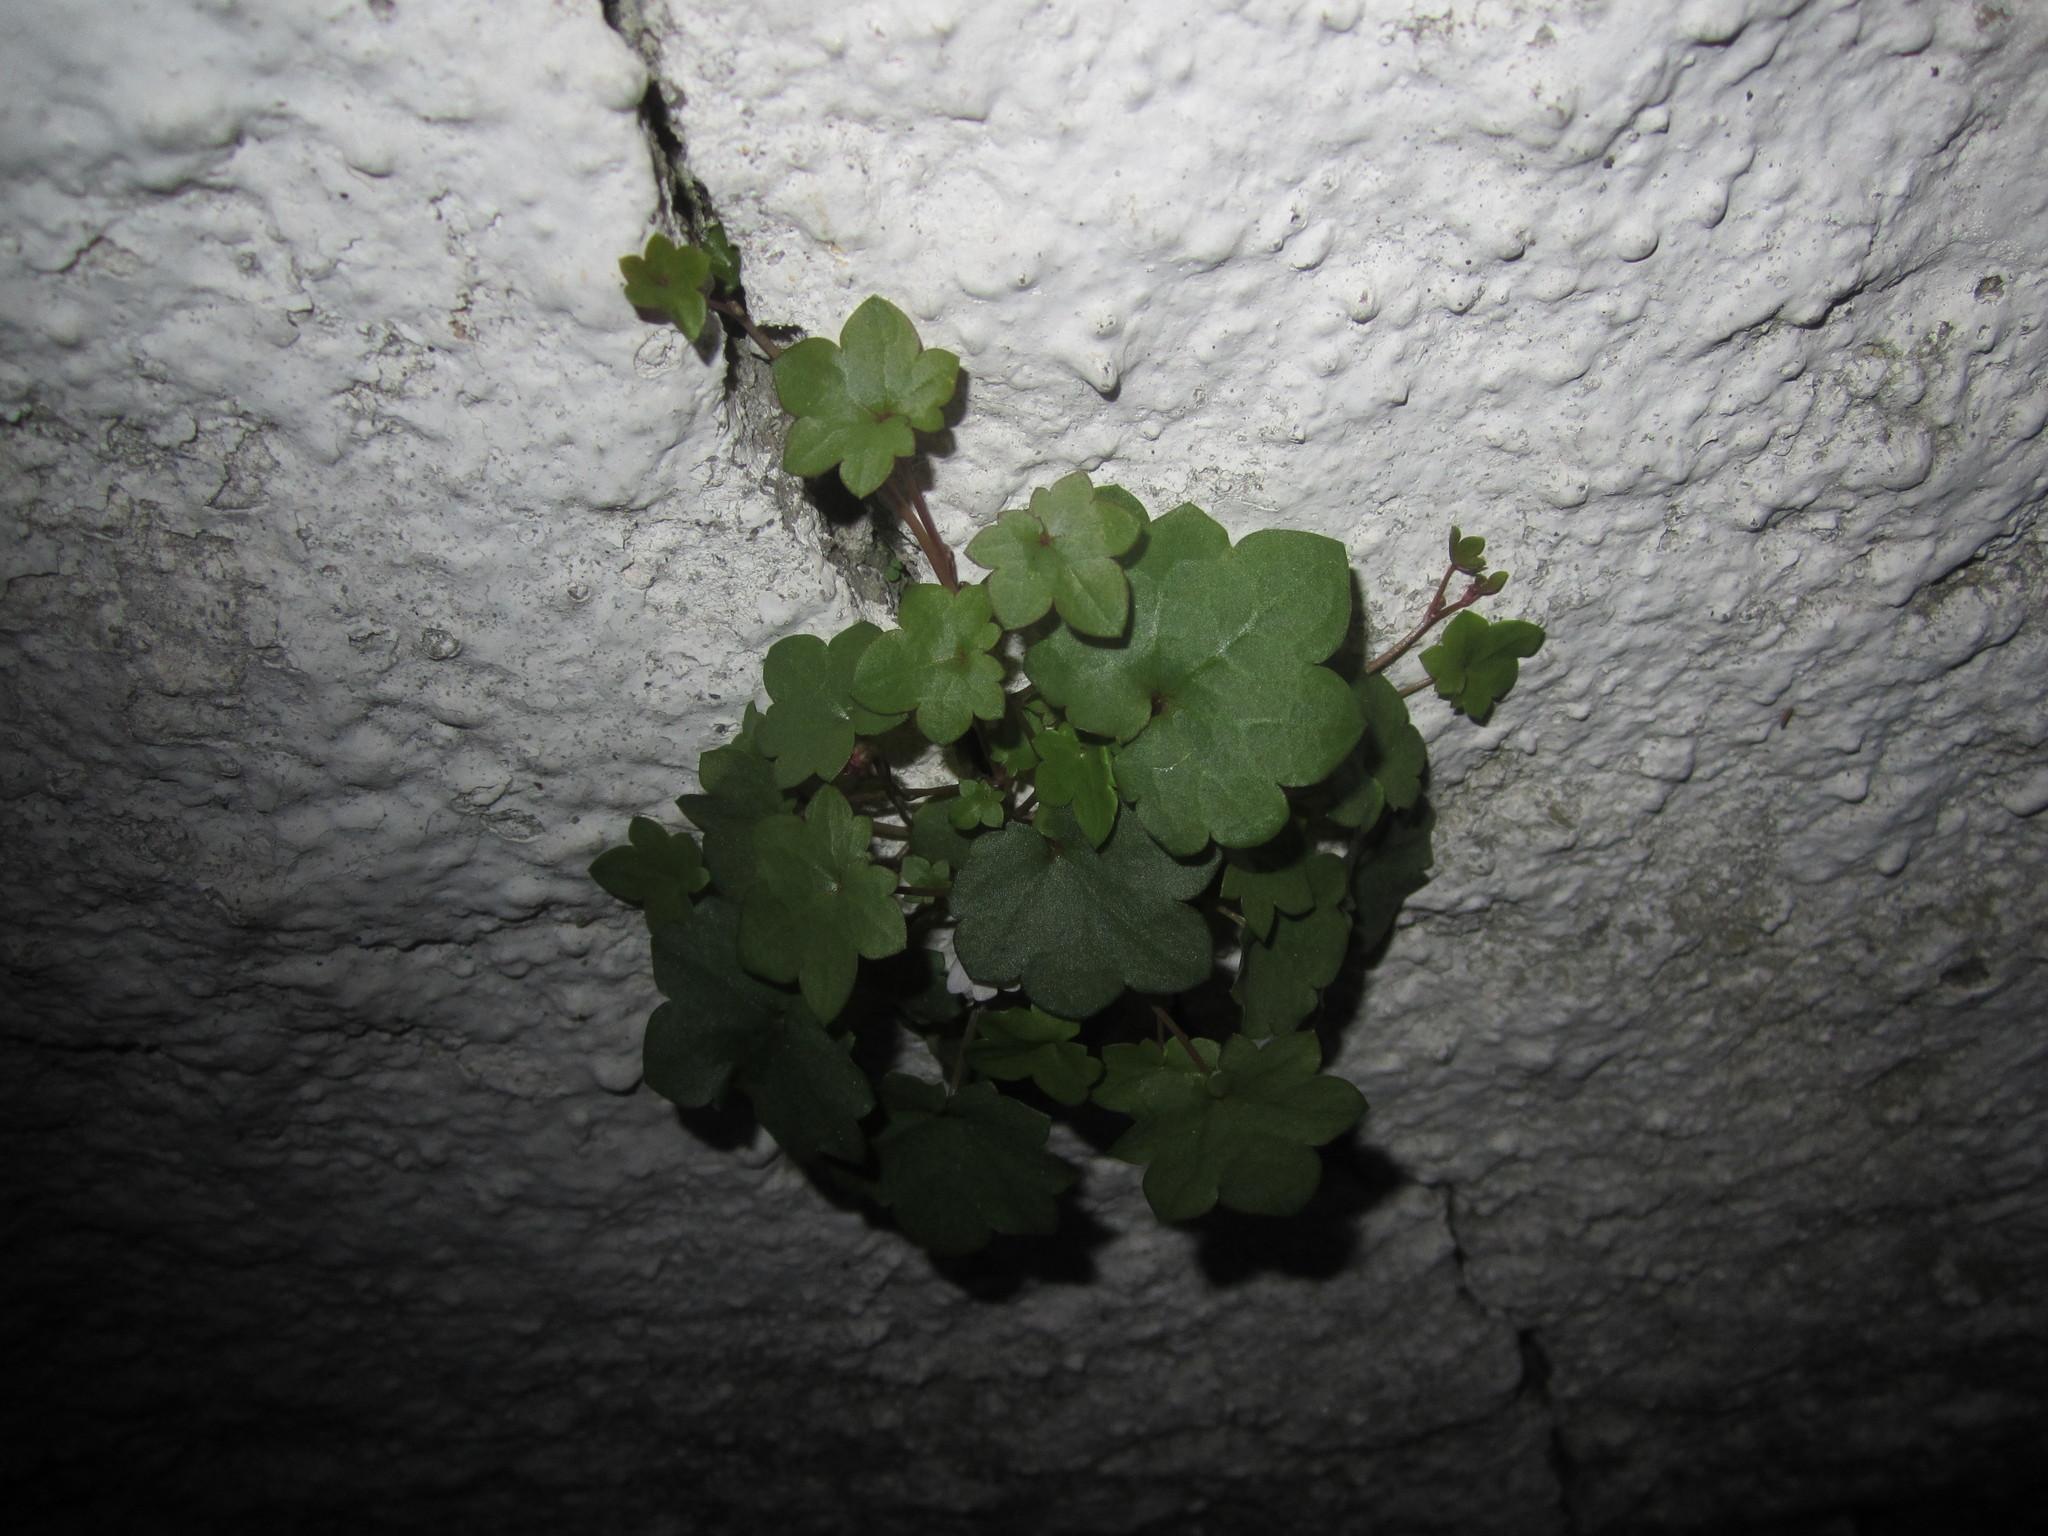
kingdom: Plantae
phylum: Tracheophyta
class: Magnoliopsida
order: Lamiales
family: Plantaginaceae
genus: Cymbalaria
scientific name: Cymbalaria muralis
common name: Ivy-leaved toadflax
